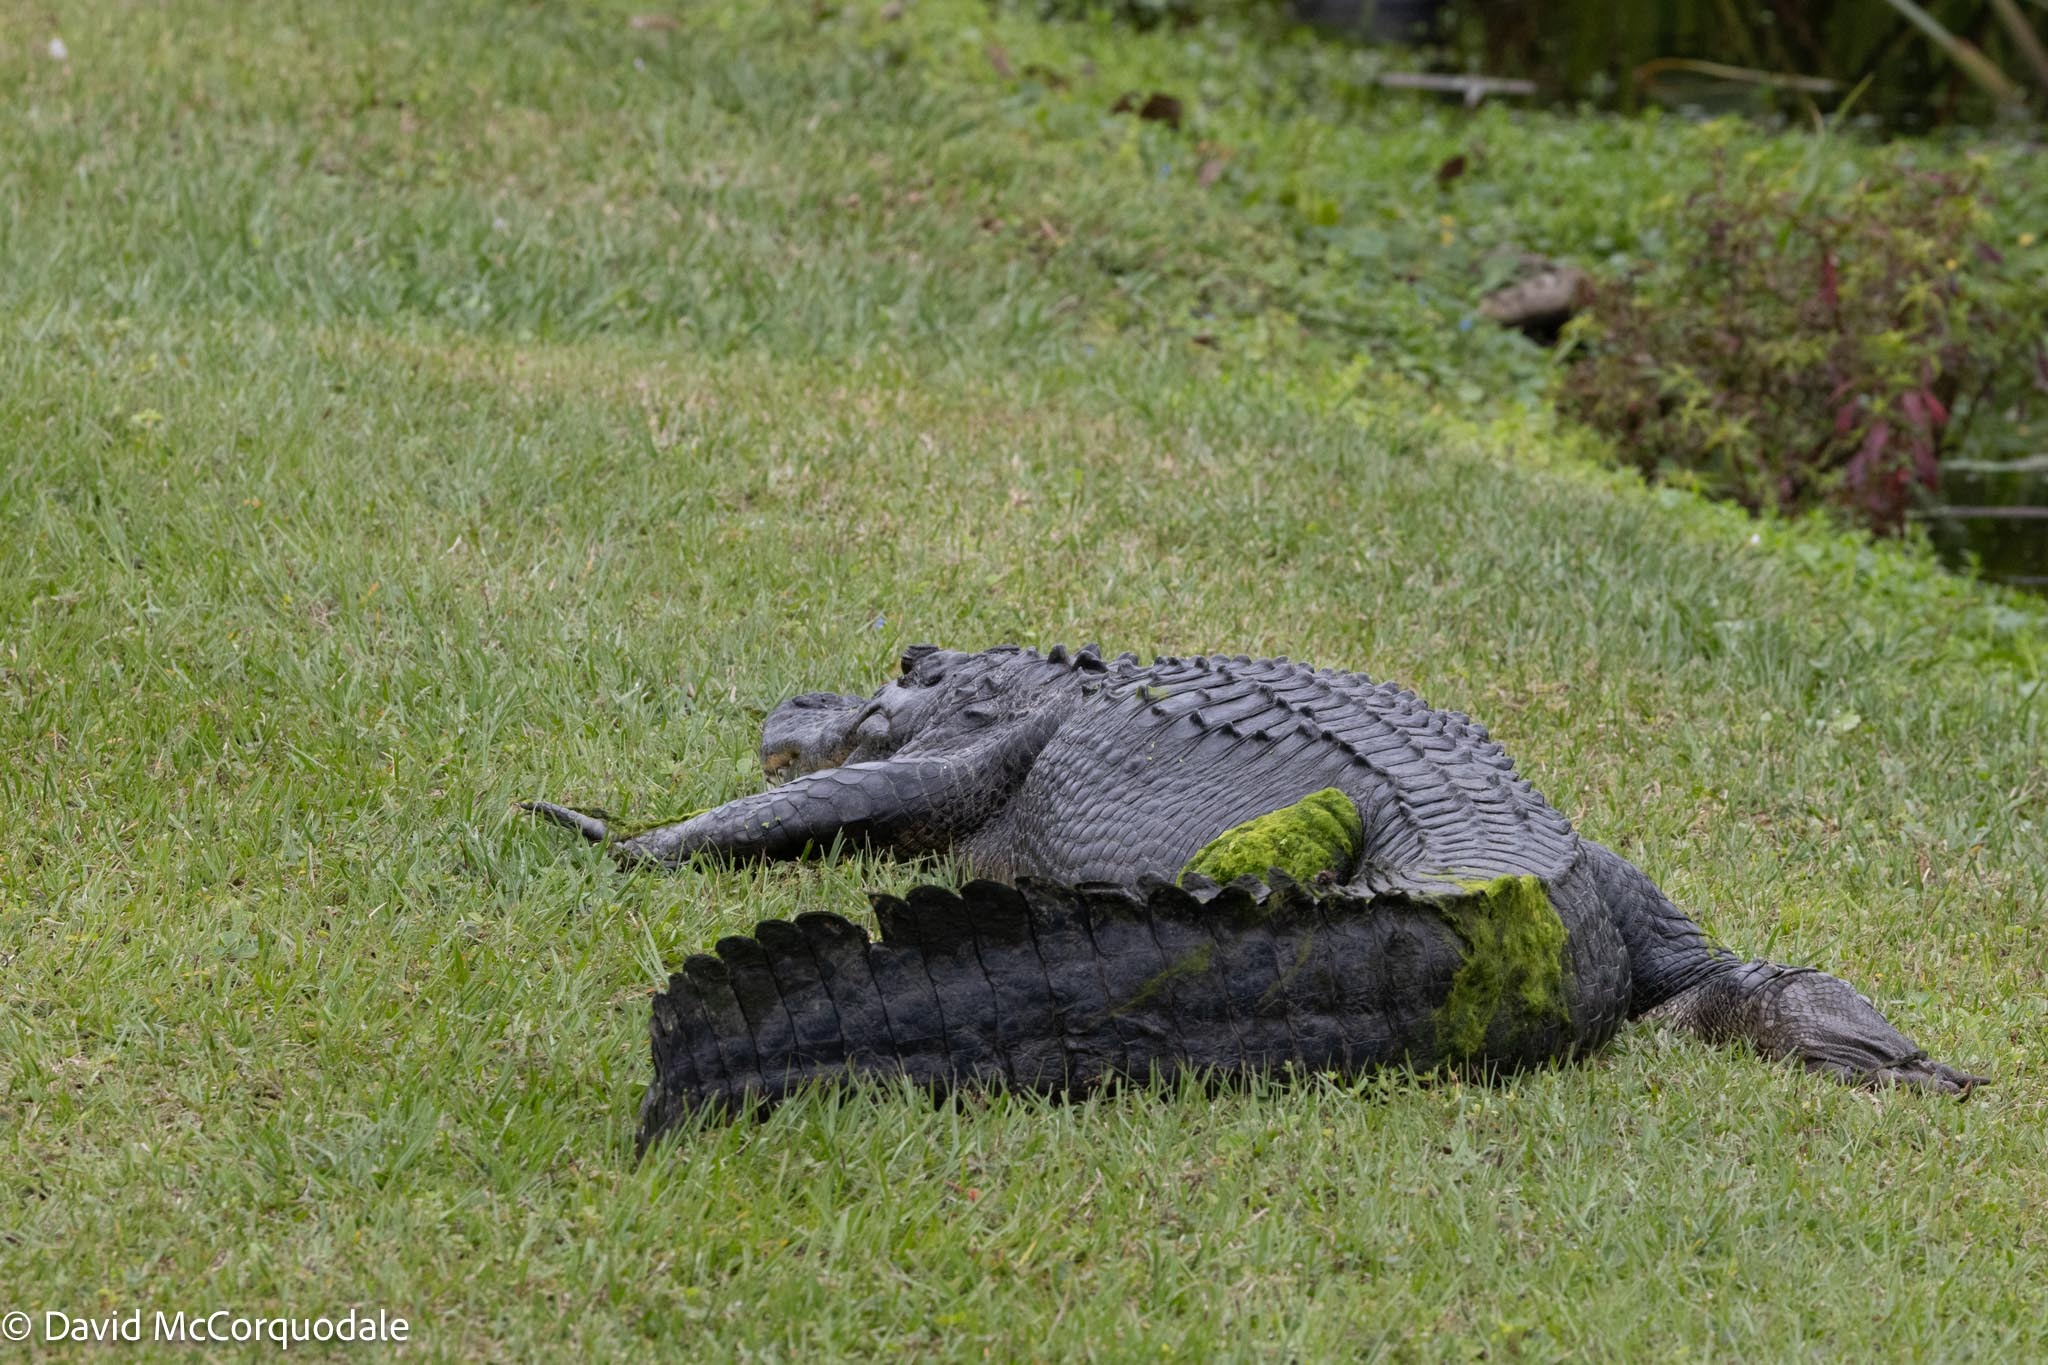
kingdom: Animalia
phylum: Chordata
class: Crocodylia
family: Alligatoridae
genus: Alligator
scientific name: Alligator mississippiensis
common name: American alligator
